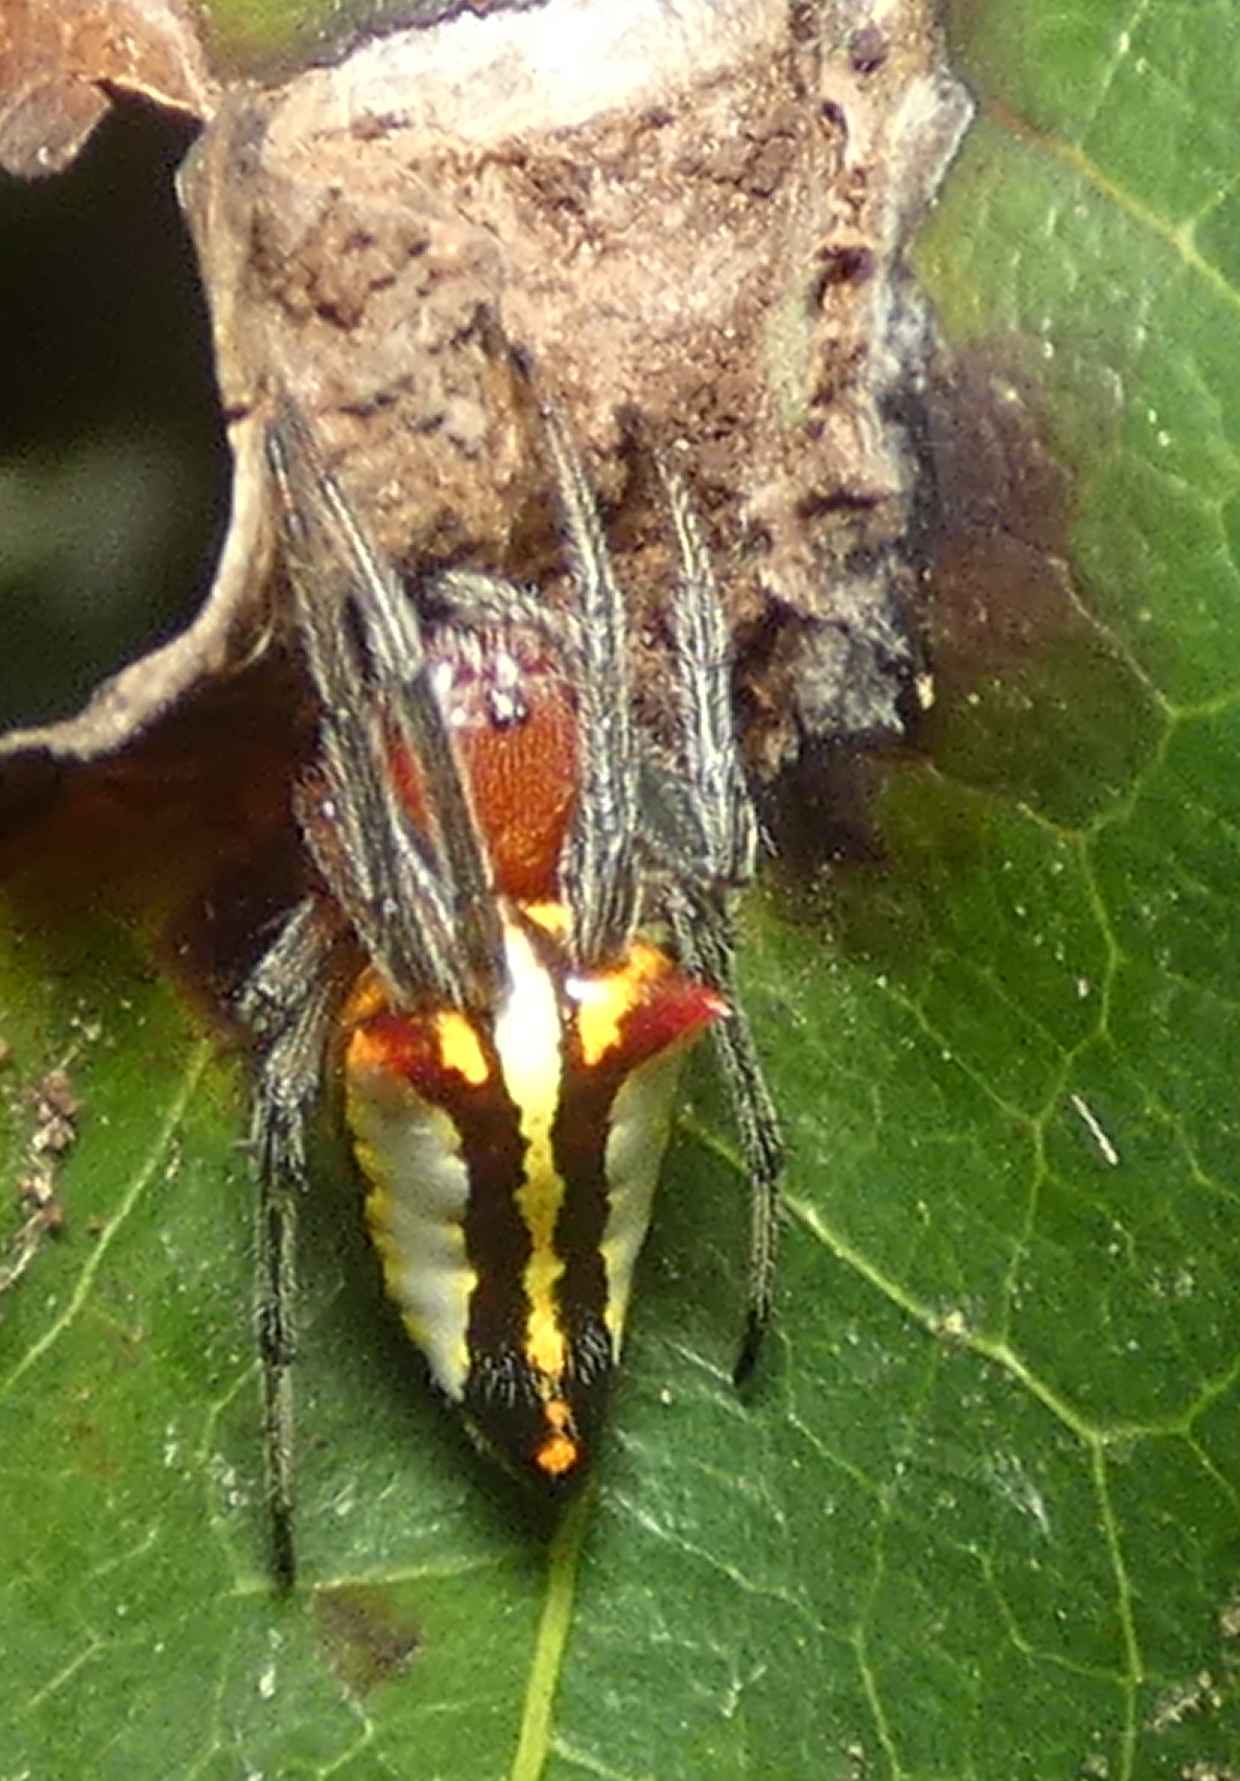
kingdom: Animalia
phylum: Arthropoda
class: Arachnida
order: Araneae
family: Araneidae
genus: Alpaida
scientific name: Alpaida bicornuta
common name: Orb weavers
